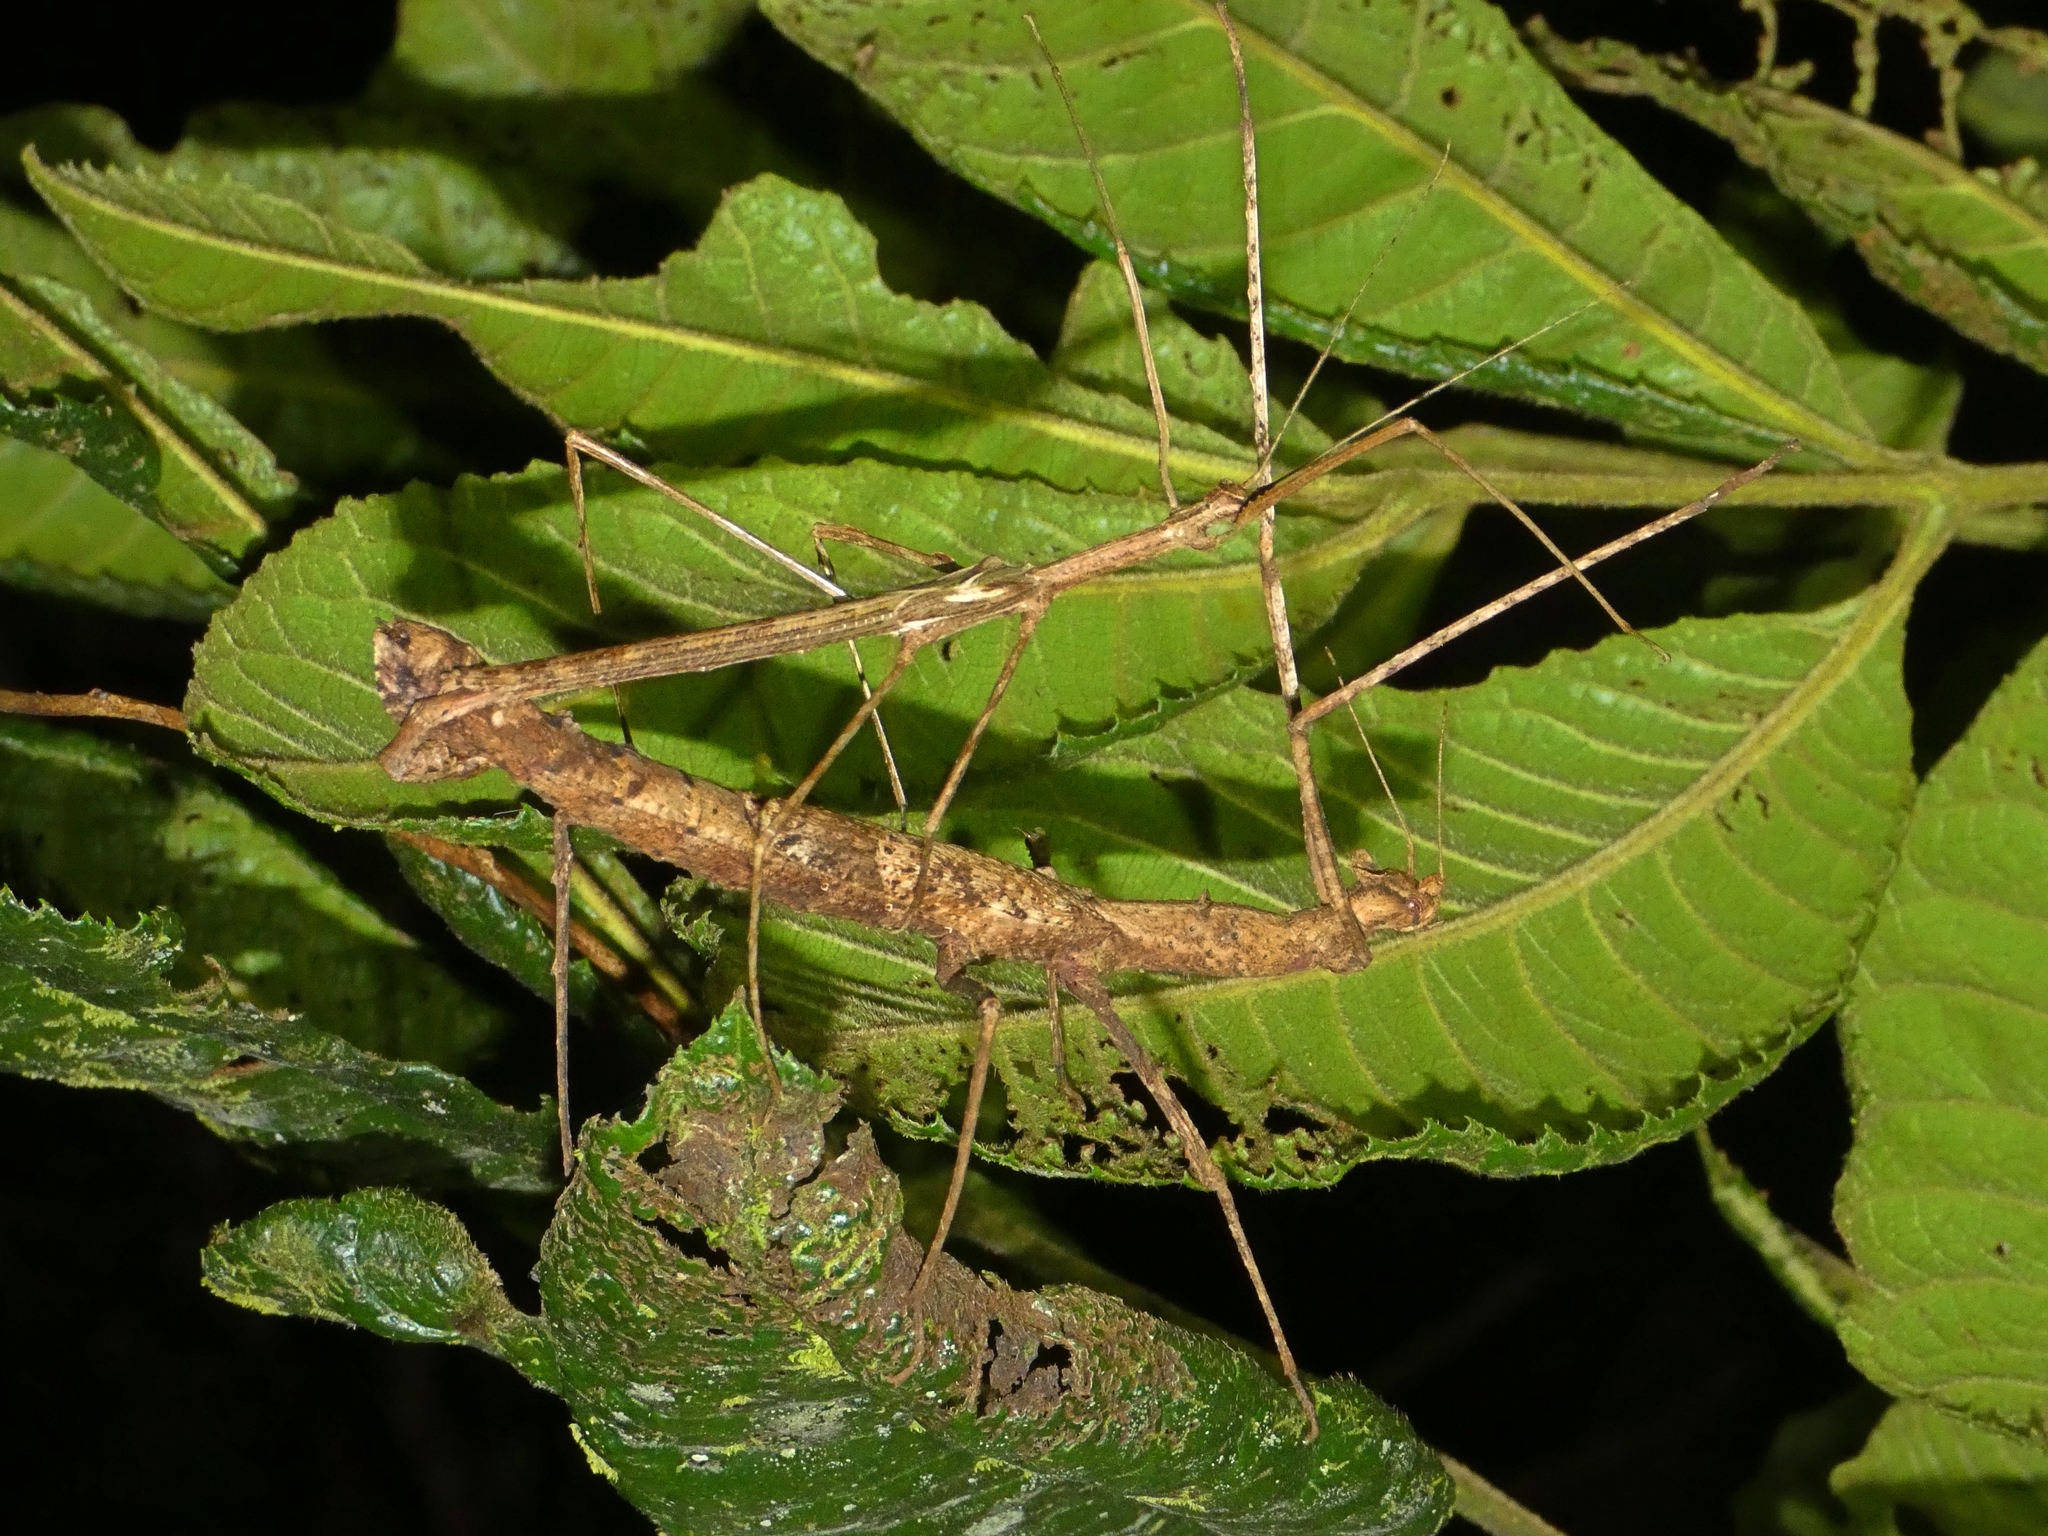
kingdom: Animalia
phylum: Arthropoda
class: Insecta
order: Phasmida
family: Phasmatidae
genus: Onchestus
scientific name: Onchestus rentzi
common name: Rentz's stick-insect
